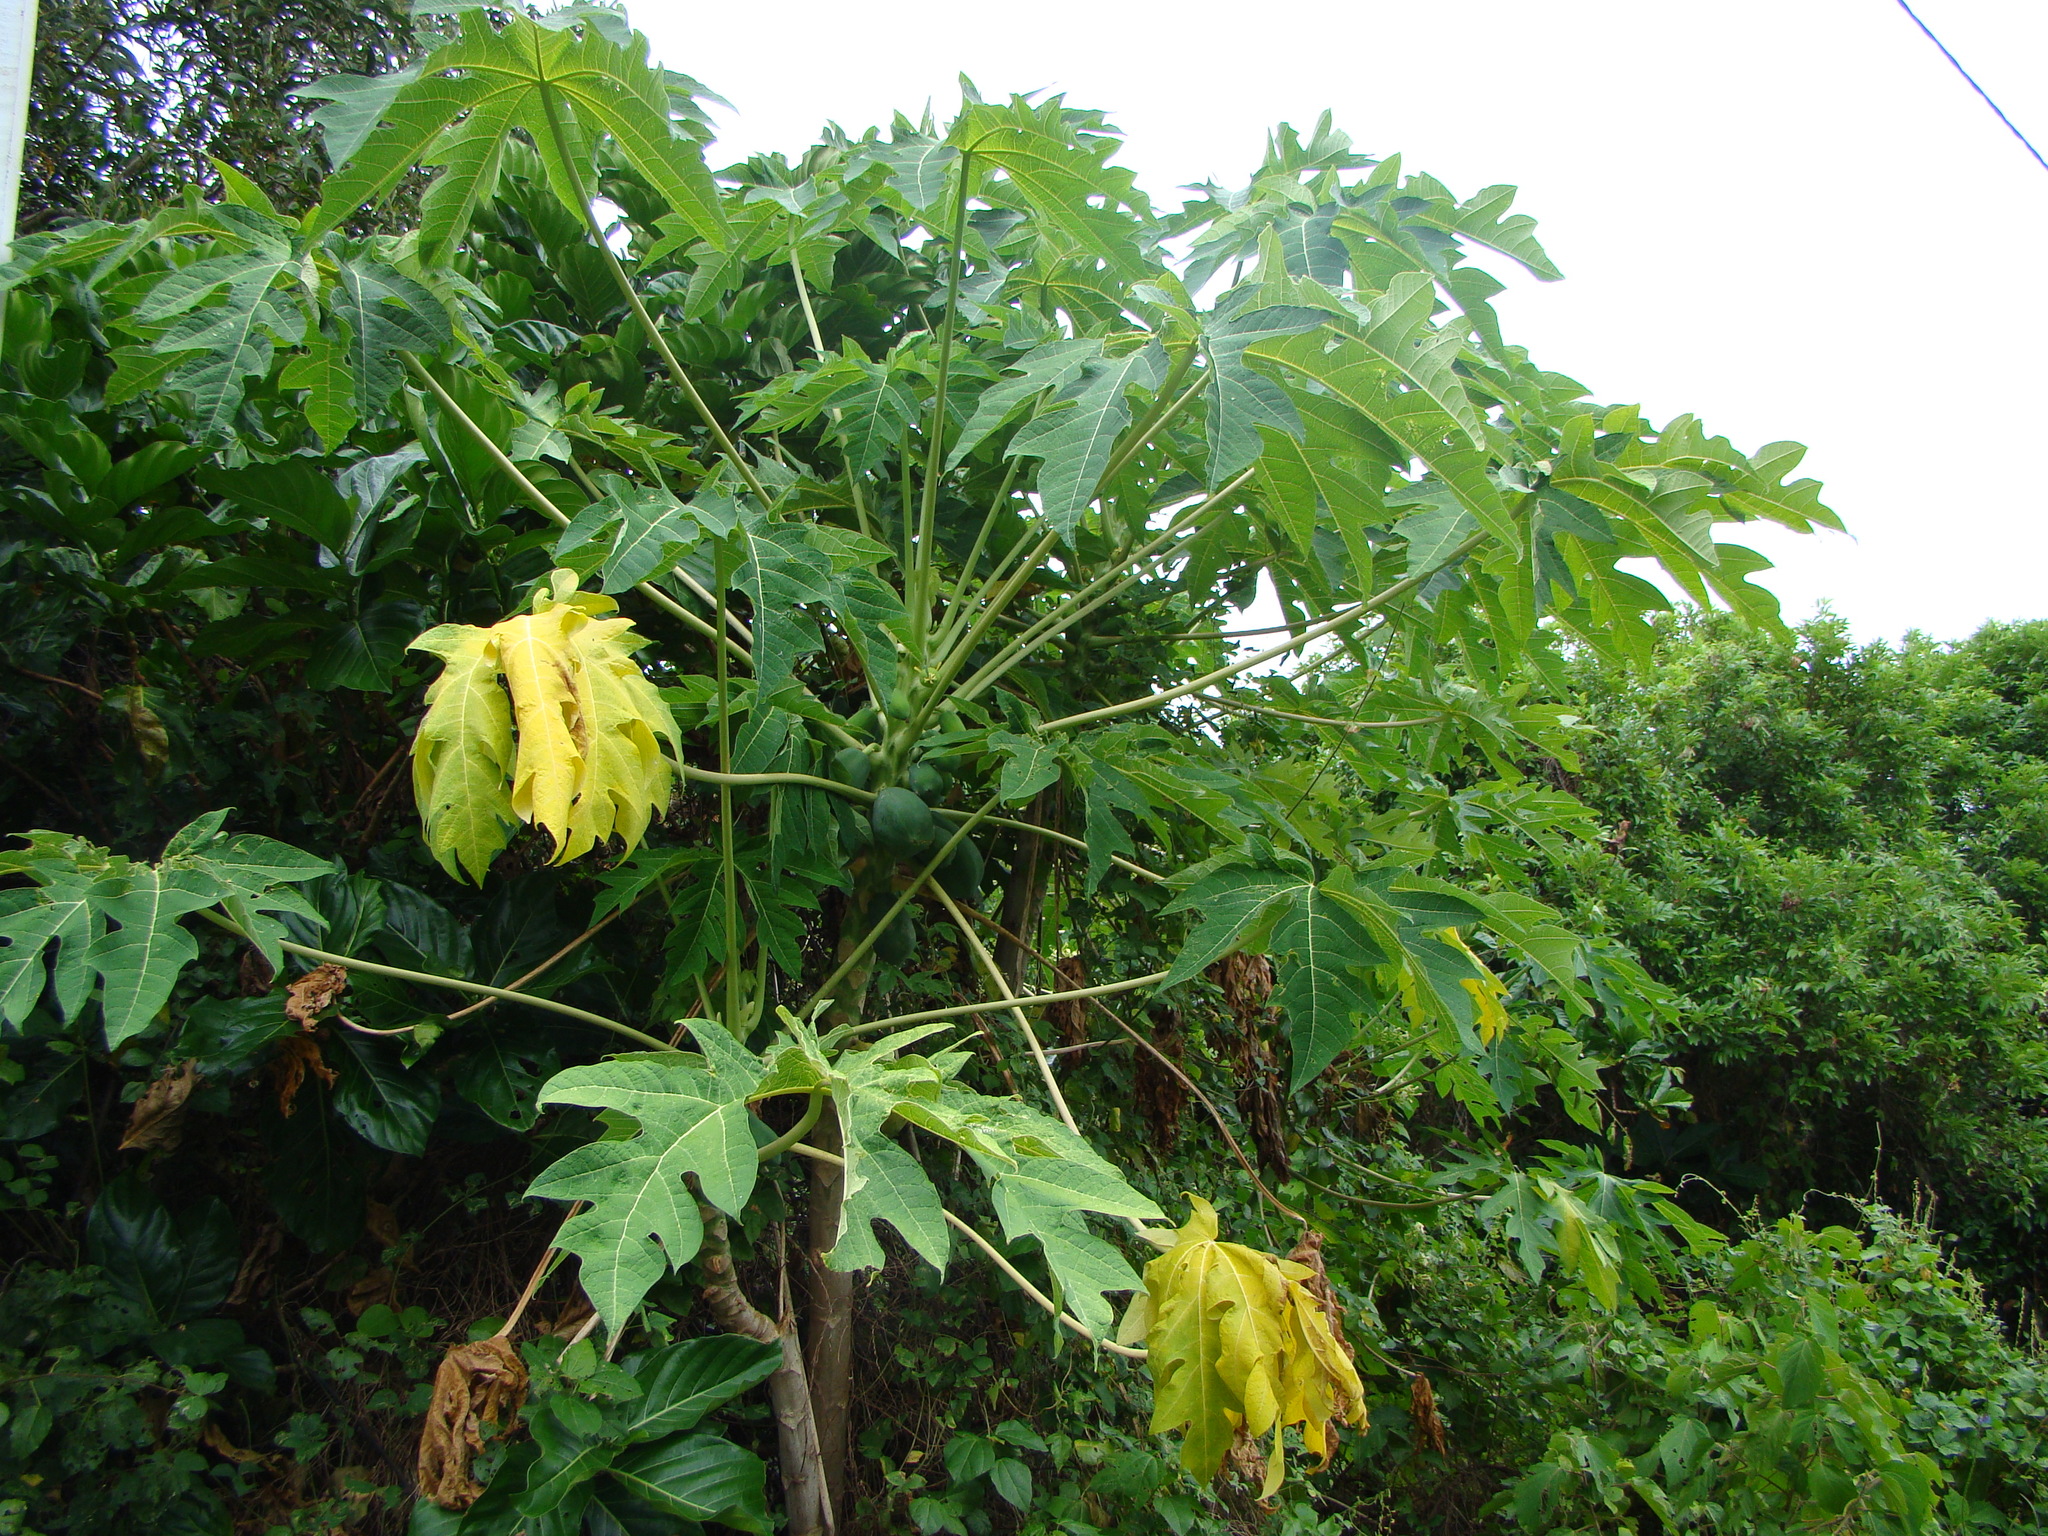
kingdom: Plantae
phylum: Tracheophyta
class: Magnoliopsida
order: Brassicales
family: Caricaceae
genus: Carica
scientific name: Carica papaya
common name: Papaya
